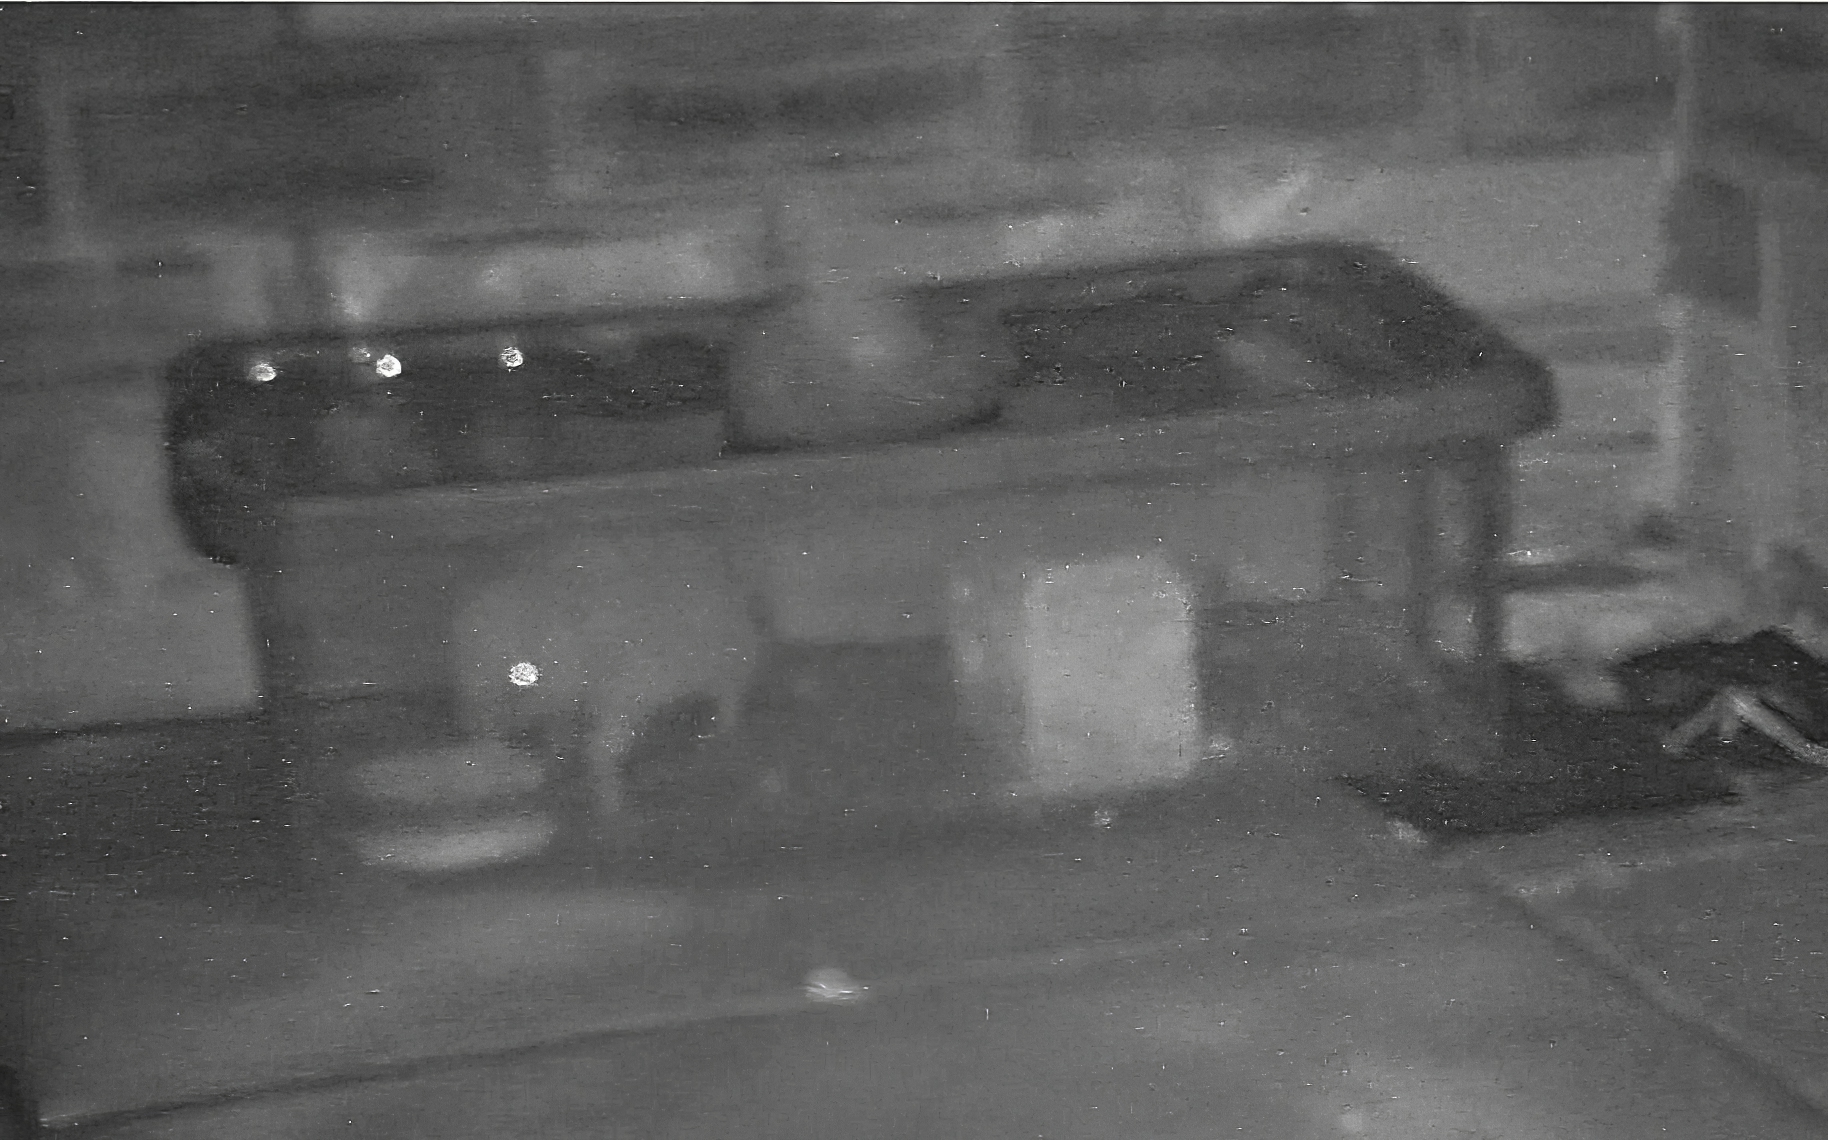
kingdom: Animalia
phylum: Chordata
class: Mammalia
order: Erinaceomorpha
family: Erinaceidae
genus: Erinaceus
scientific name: Erinaceus europaeus
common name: West european hedgehog
